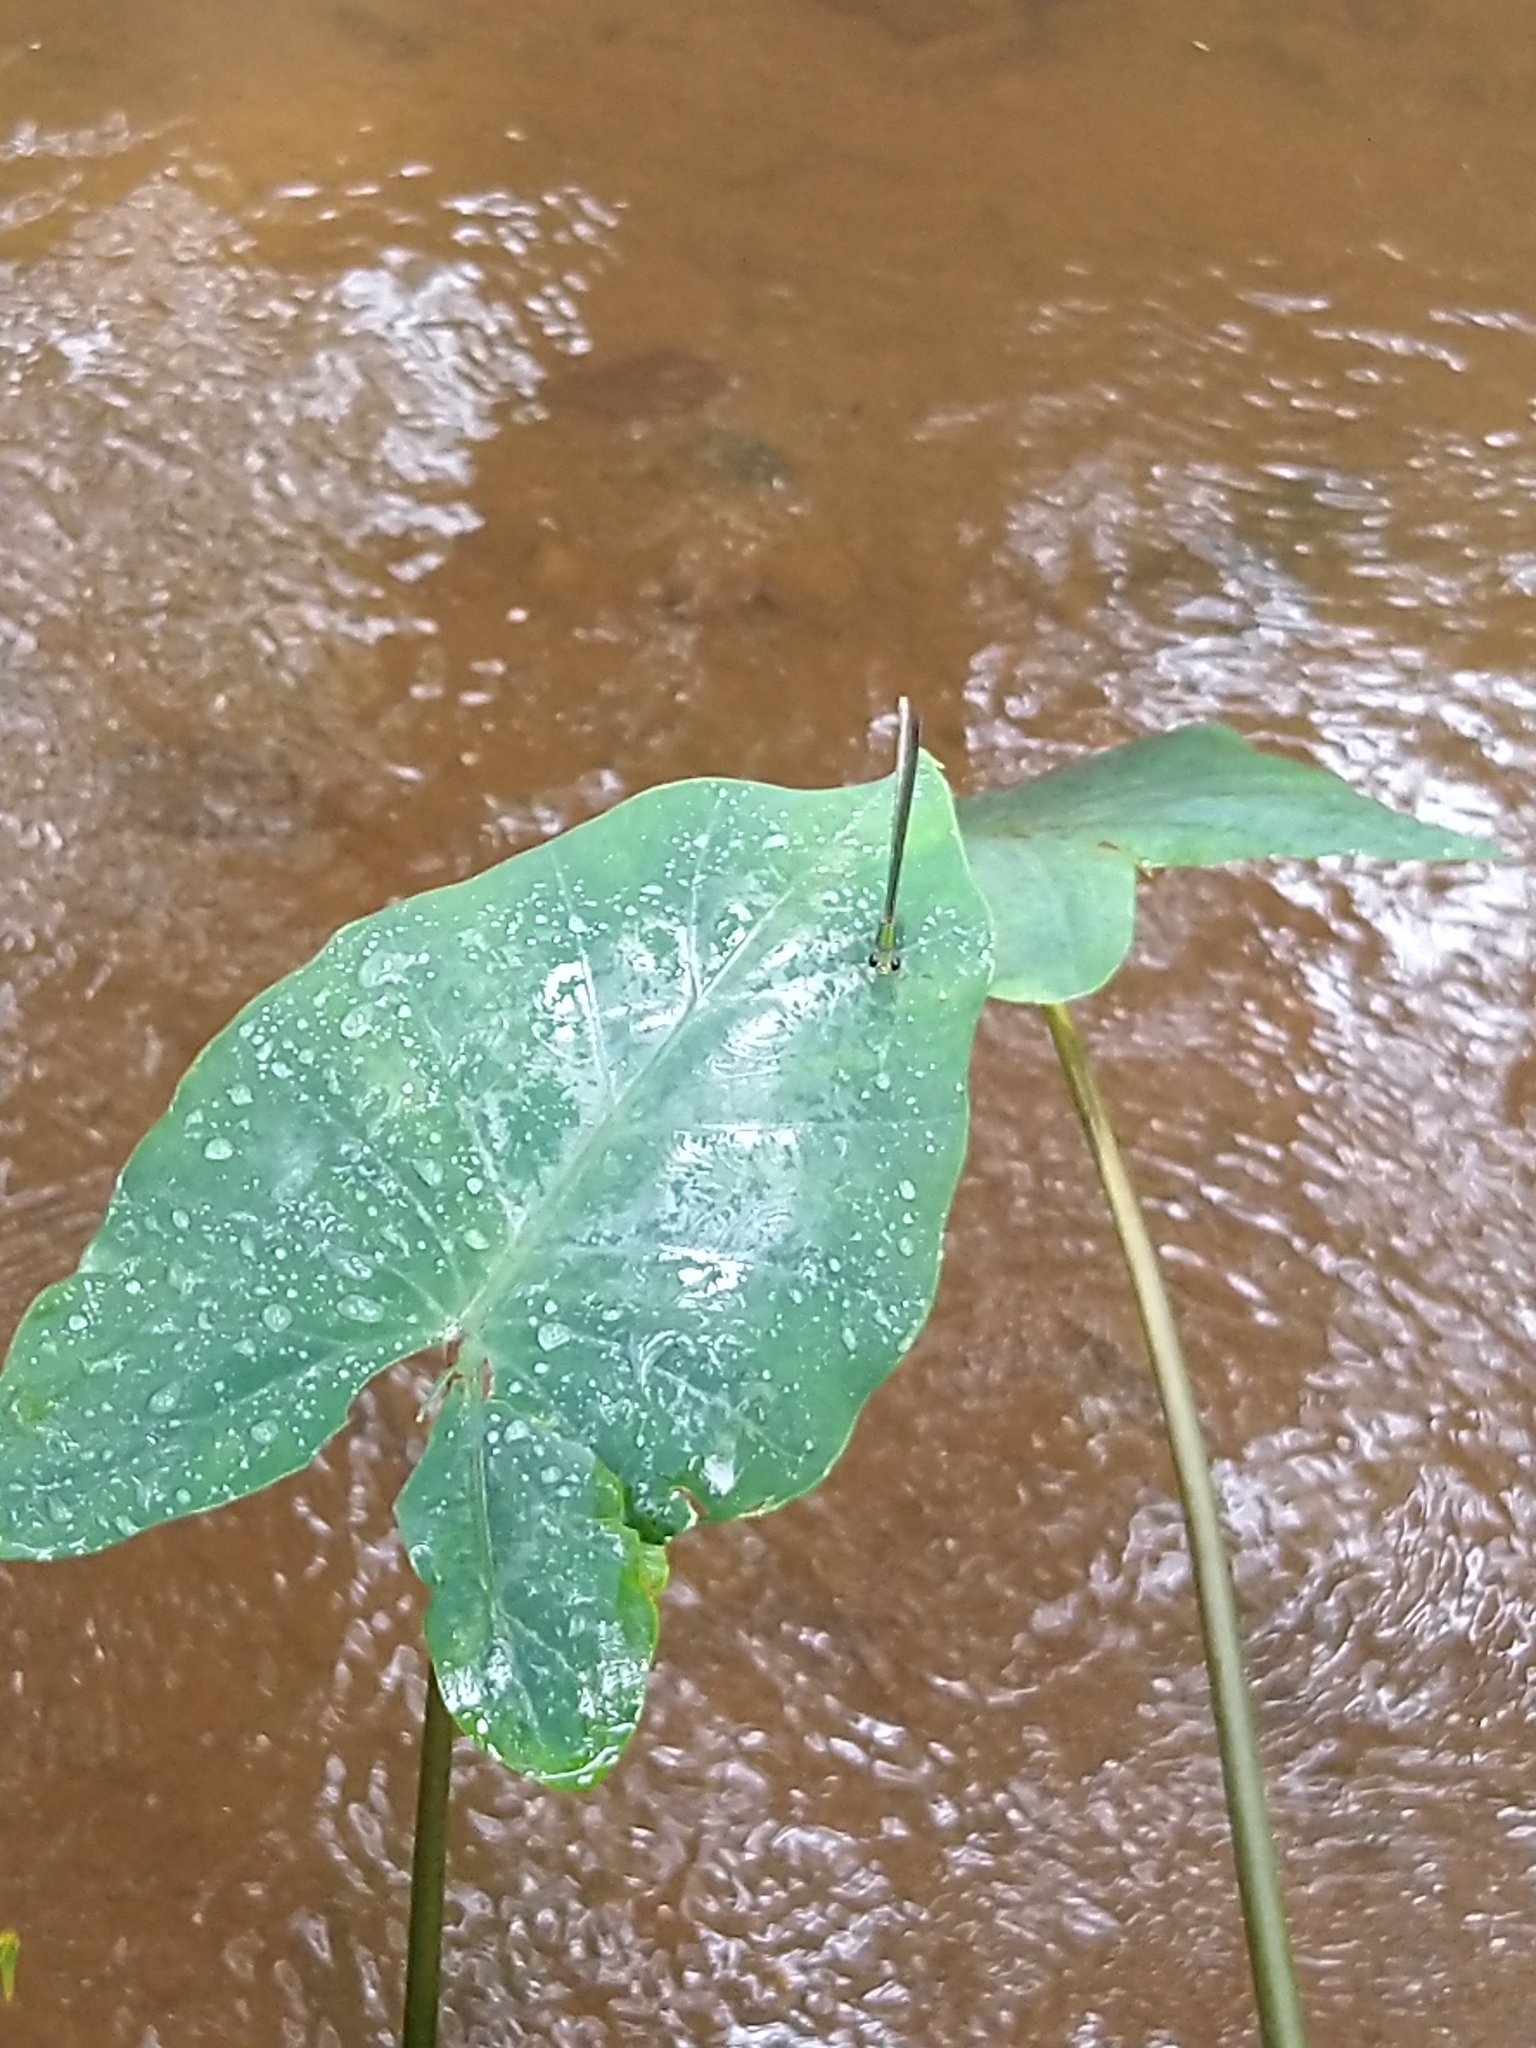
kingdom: Animalia
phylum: Arthropoda
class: Insecta
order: Odonata
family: Calopterygidae
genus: Vestalis
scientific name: Vestalis apicalis
